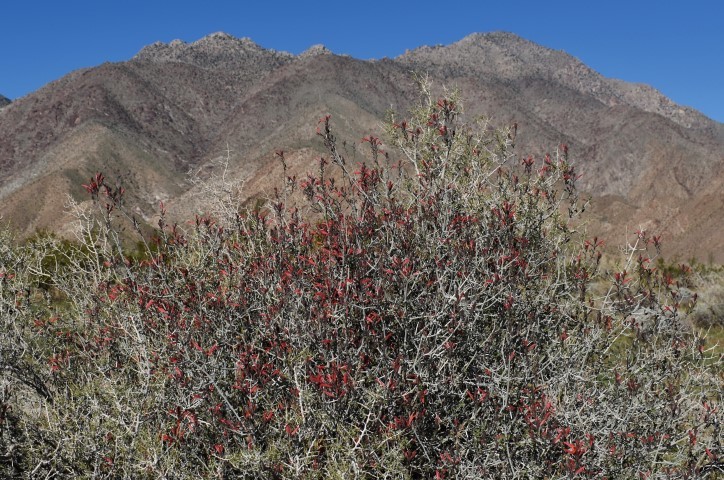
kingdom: Plantae
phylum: Tracheophyta
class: Magnoliopsida
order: Lamiales
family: Acanthaceae
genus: Justicia
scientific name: Justicia californica
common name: Chuparosa-honeysuckle
